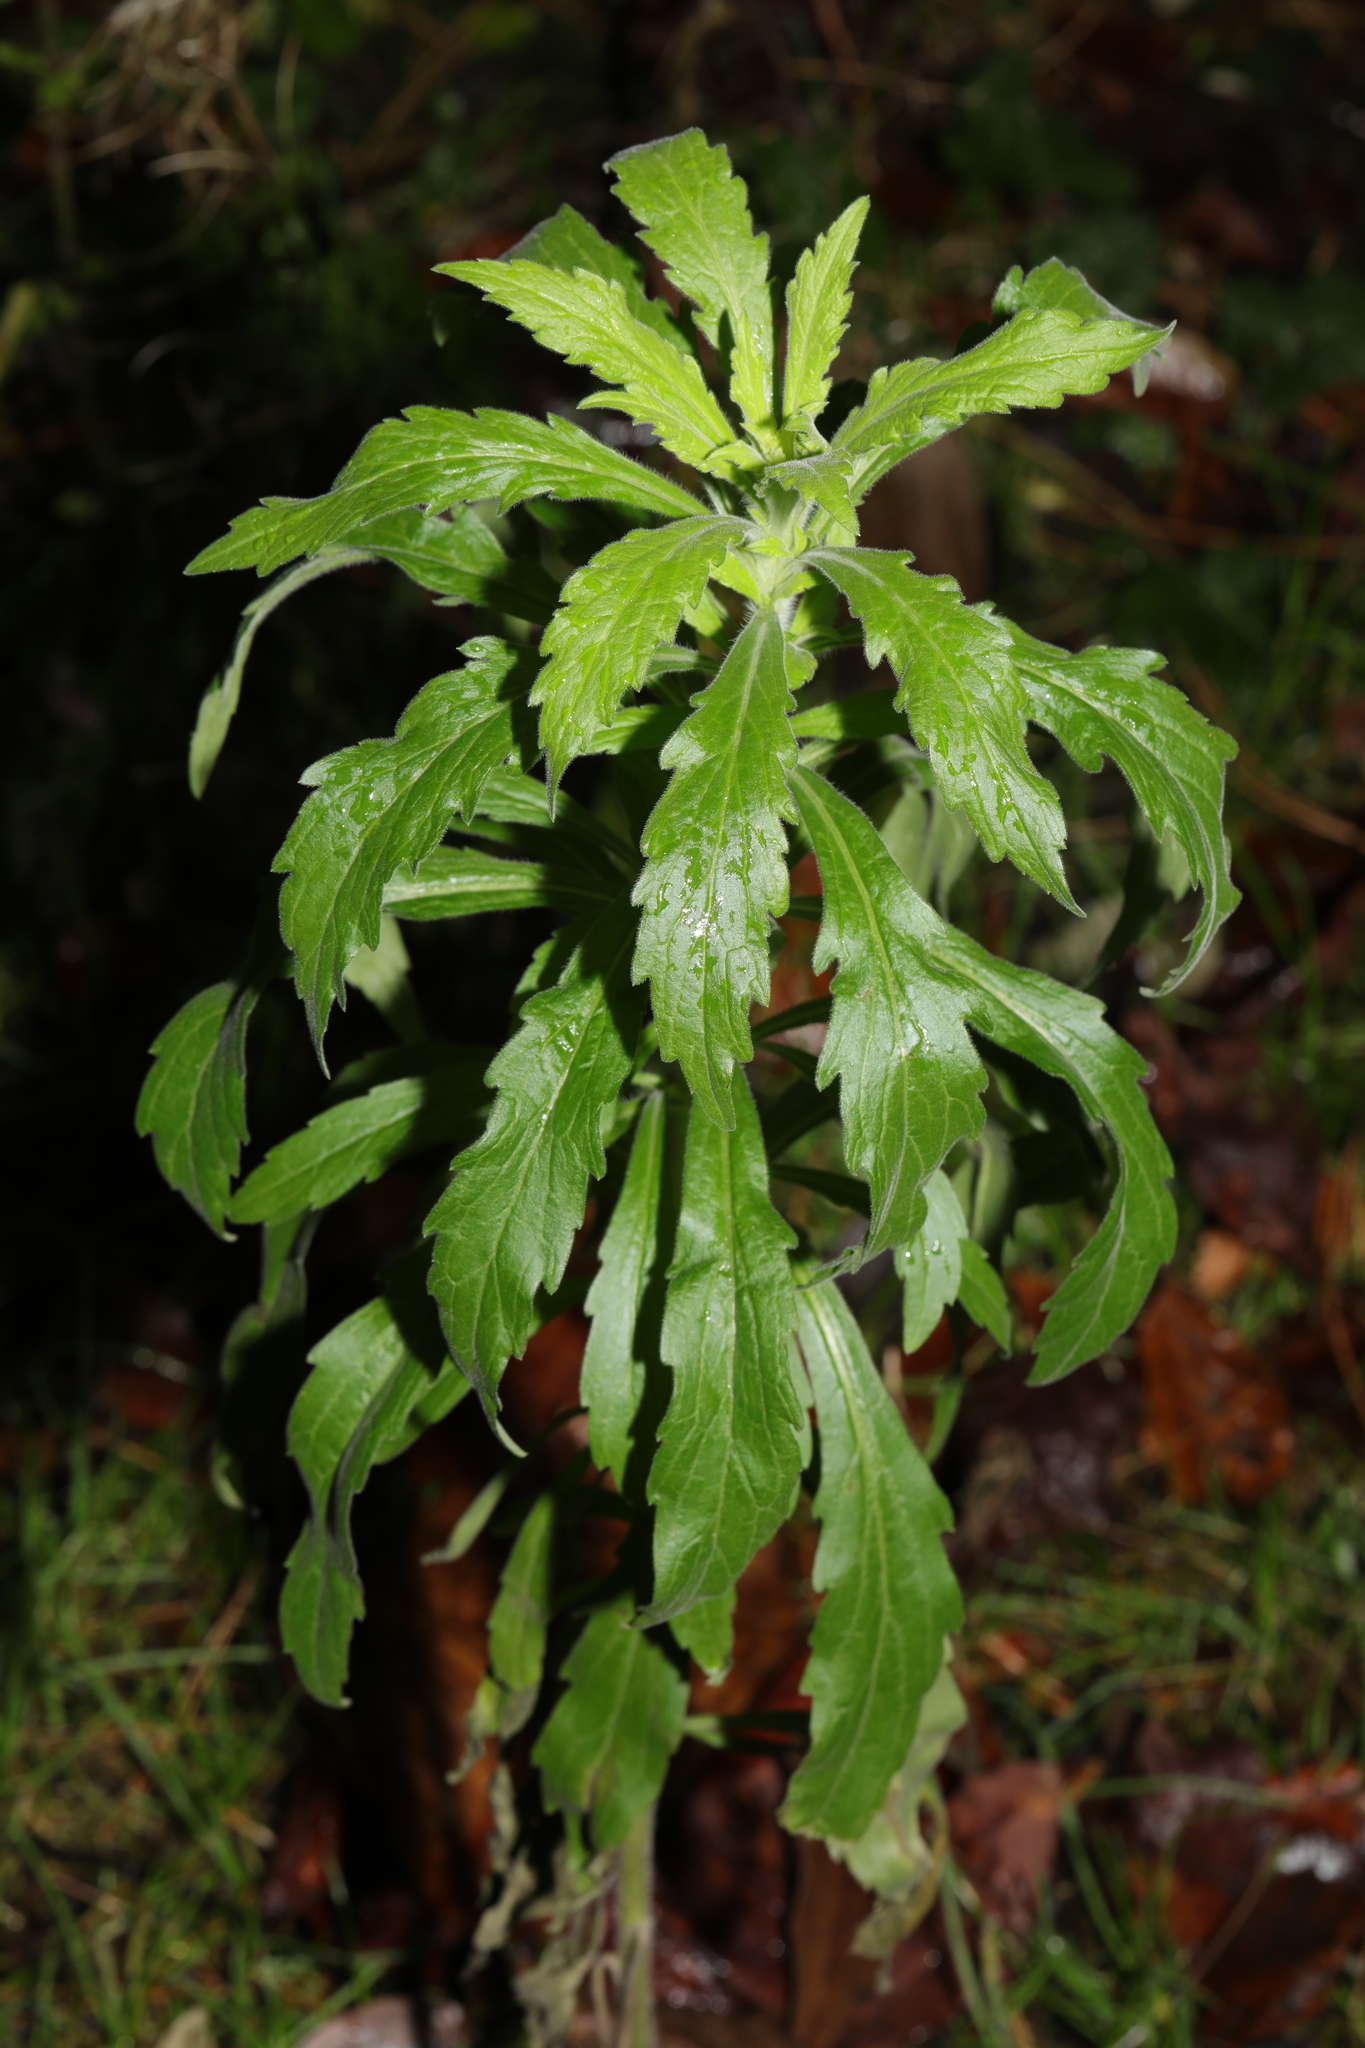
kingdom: Plantae
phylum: Tracheophyta
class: Magnoliopsida
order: Asterales
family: Asteraceae
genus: Erigeron
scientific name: Erigeron sumatrensis
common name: Daisy
